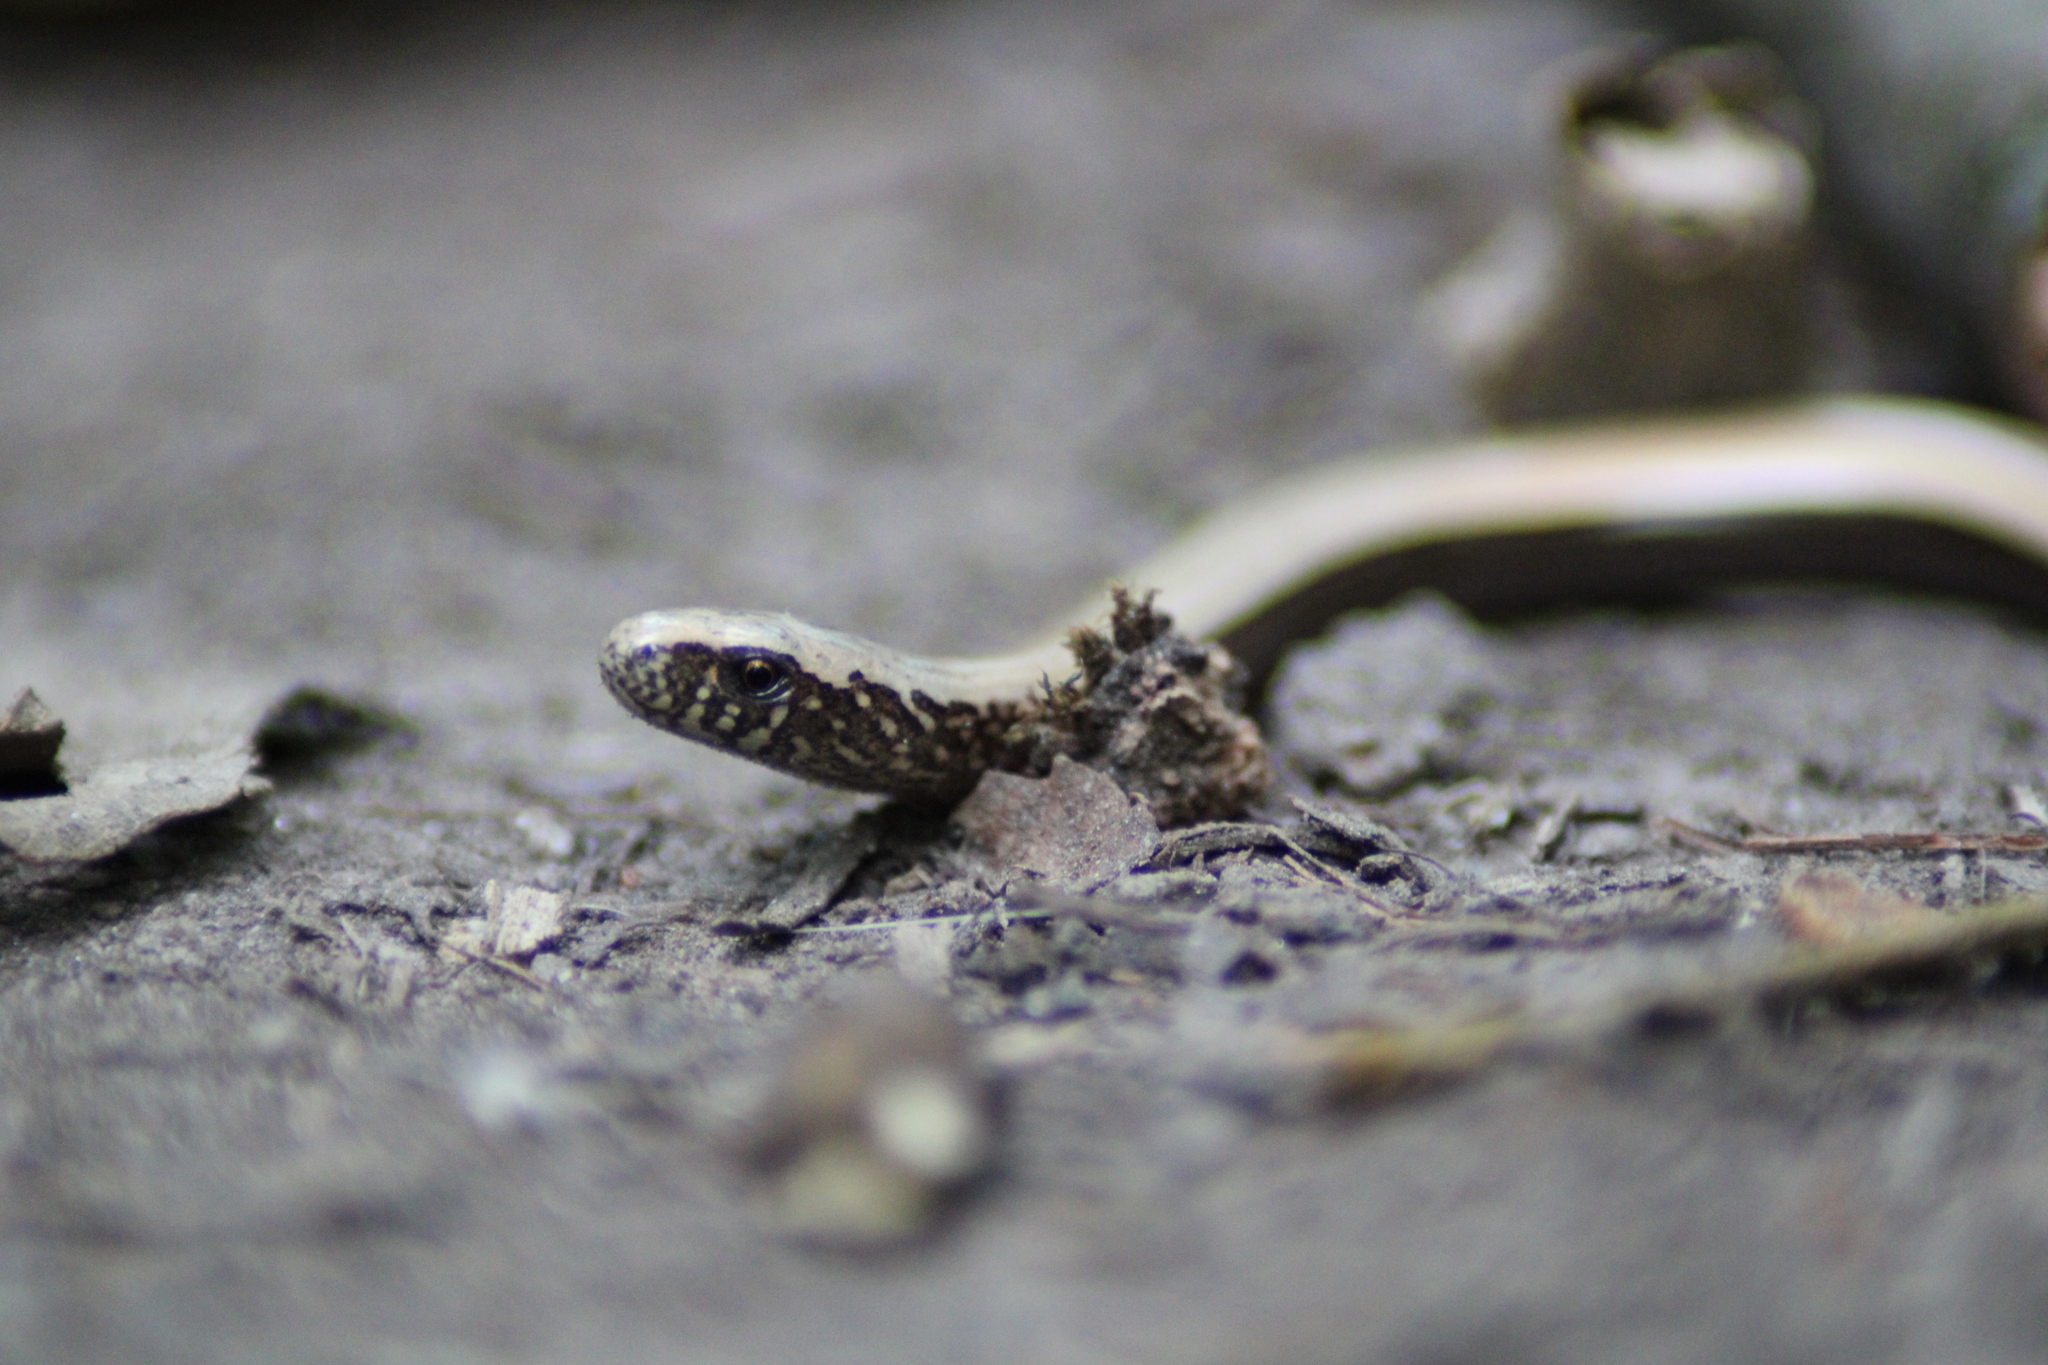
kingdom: Animalia
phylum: Chordata
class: Squamata
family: Anguidae
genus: Anguis
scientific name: Anguis fragilis
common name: Slow worm
